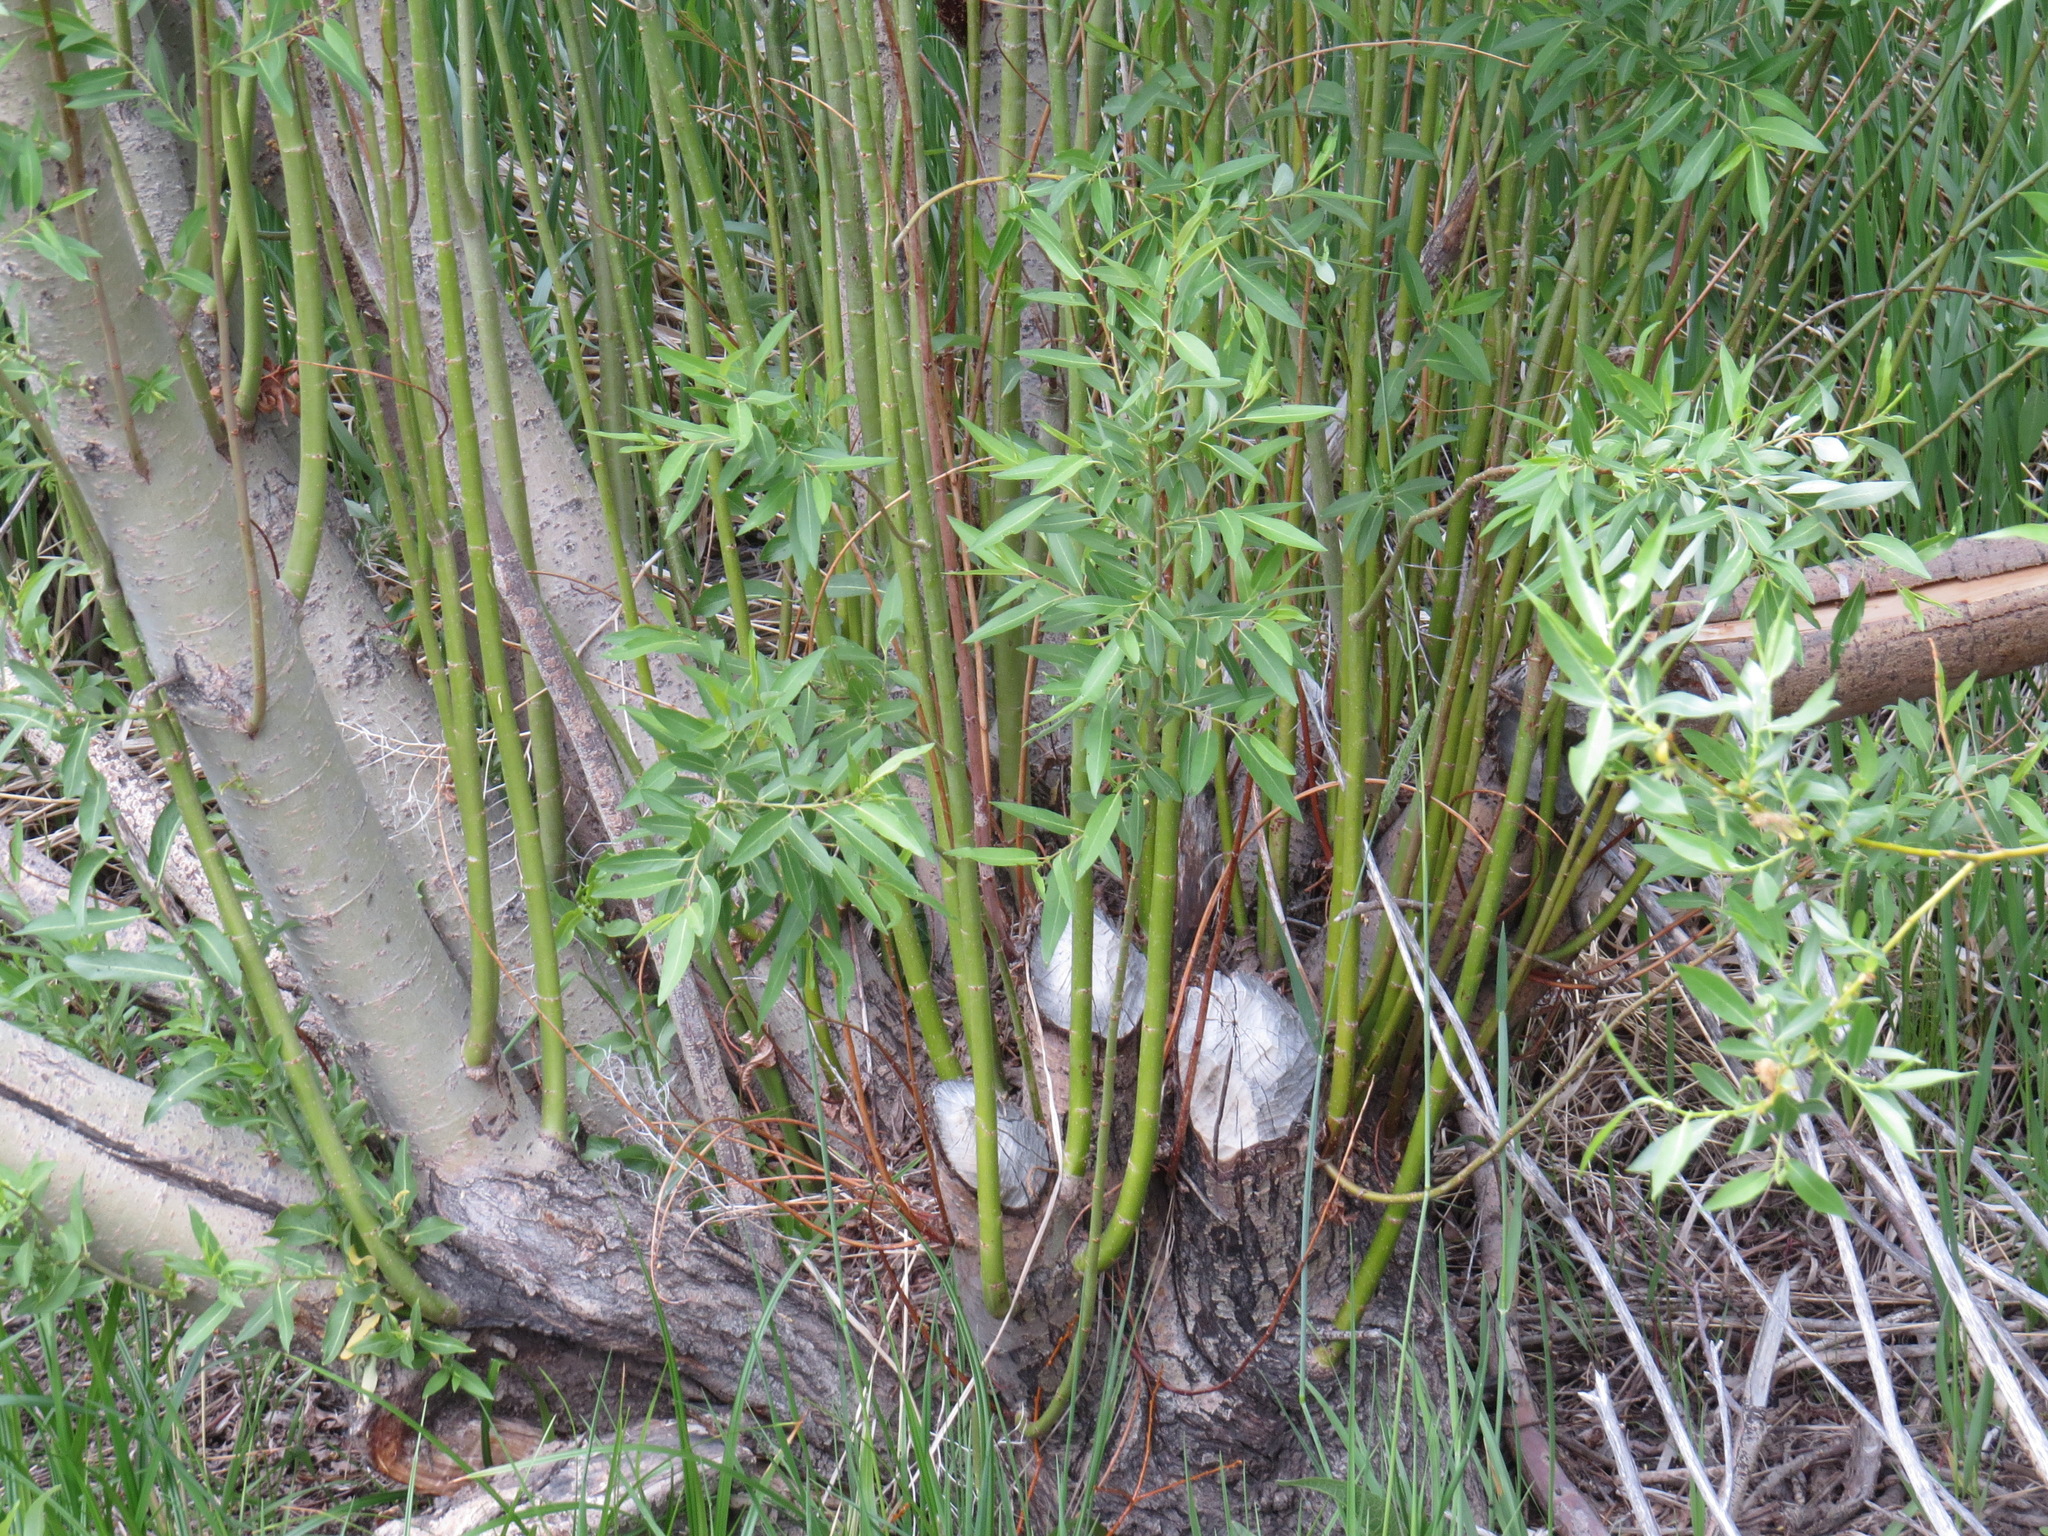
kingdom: Animalia
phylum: Chordata
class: Mammalia
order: Rodentia
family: Castoridae
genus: Castor
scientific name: Castor canadensis
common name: American beaver
